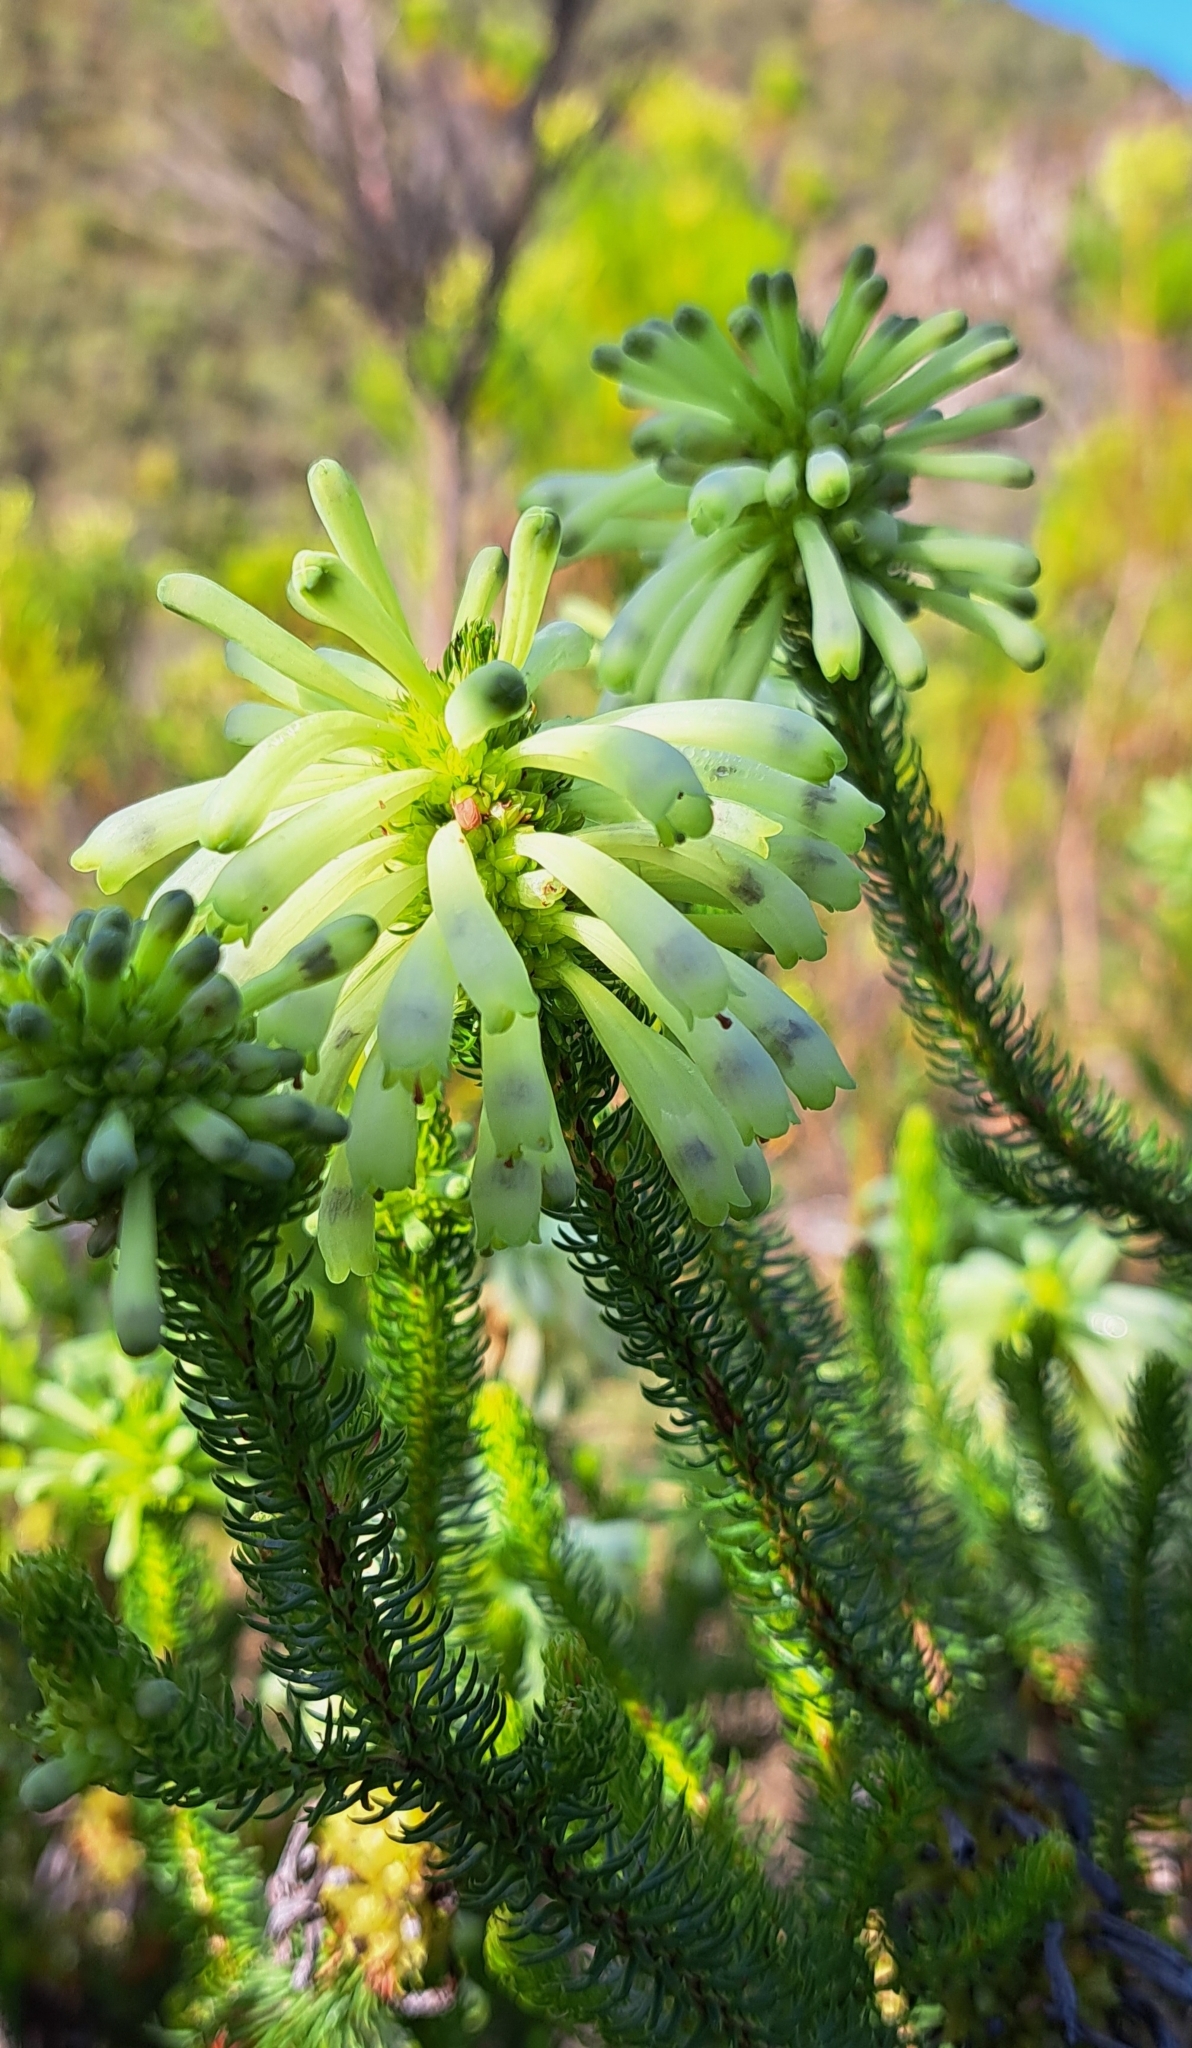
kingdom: Plantae
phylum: Tracheophyta
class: Magnoliopsida
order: Ericales
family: Ericaceae
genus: Erica
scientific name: Erica sessiliflora
